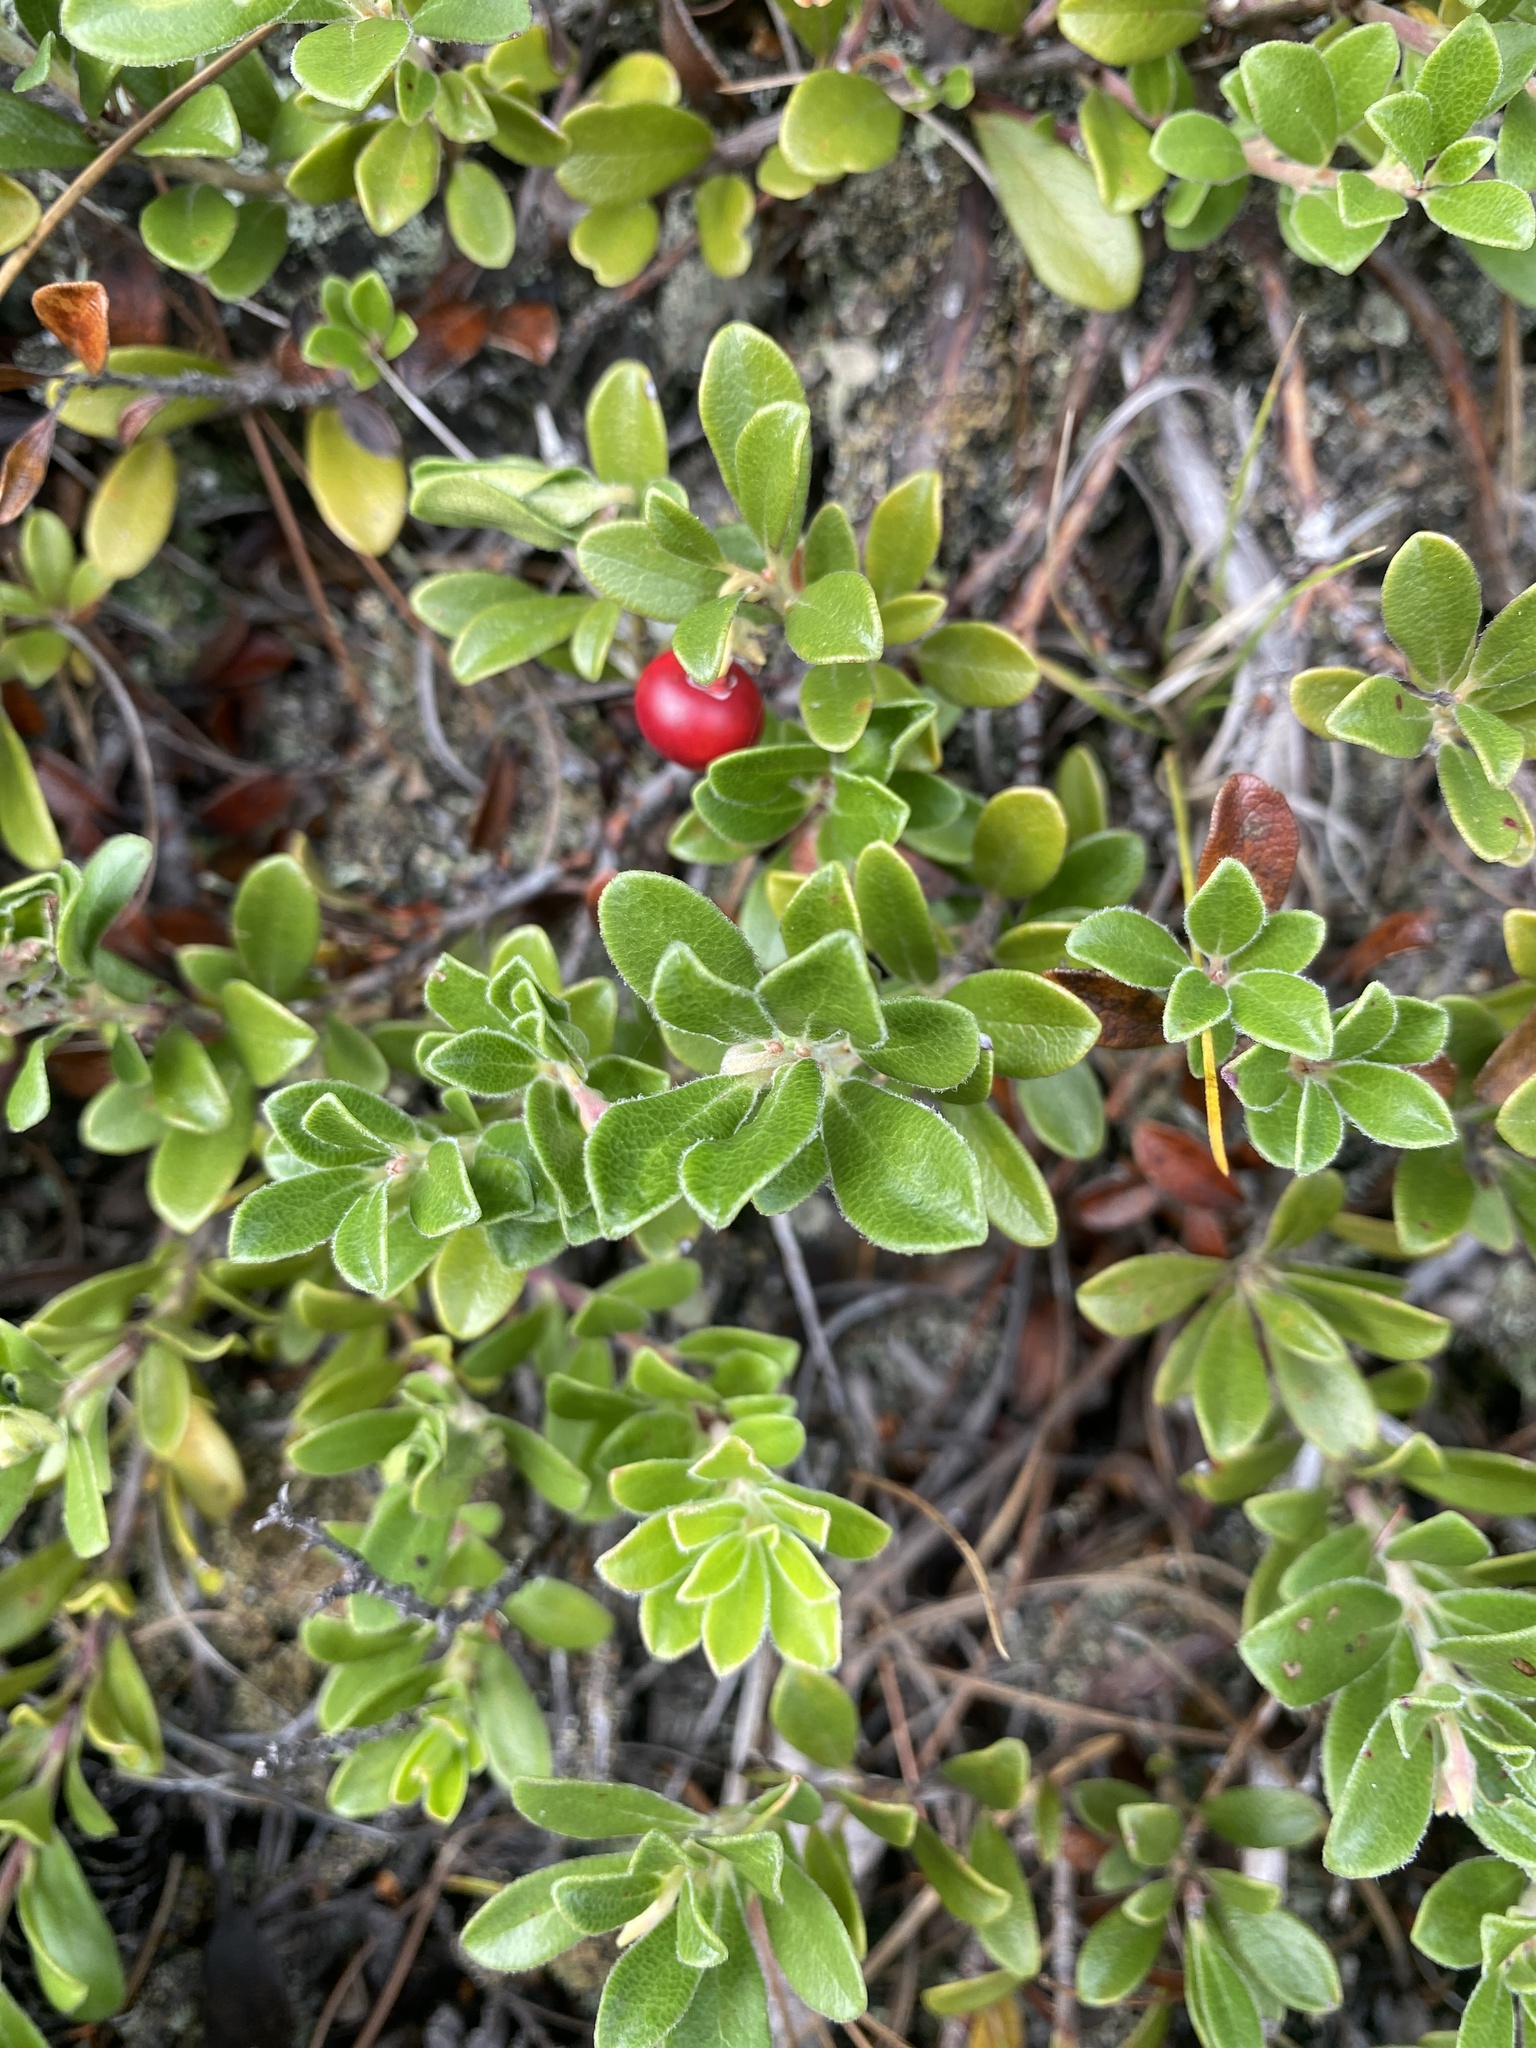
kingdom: Plantae
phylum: Tracheophyta
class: Magnoliopsida
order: Ericales
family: Ericaceae
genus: Arctostaphylos
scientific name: Arctostaphylos uva-ursi
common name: Bearberry
